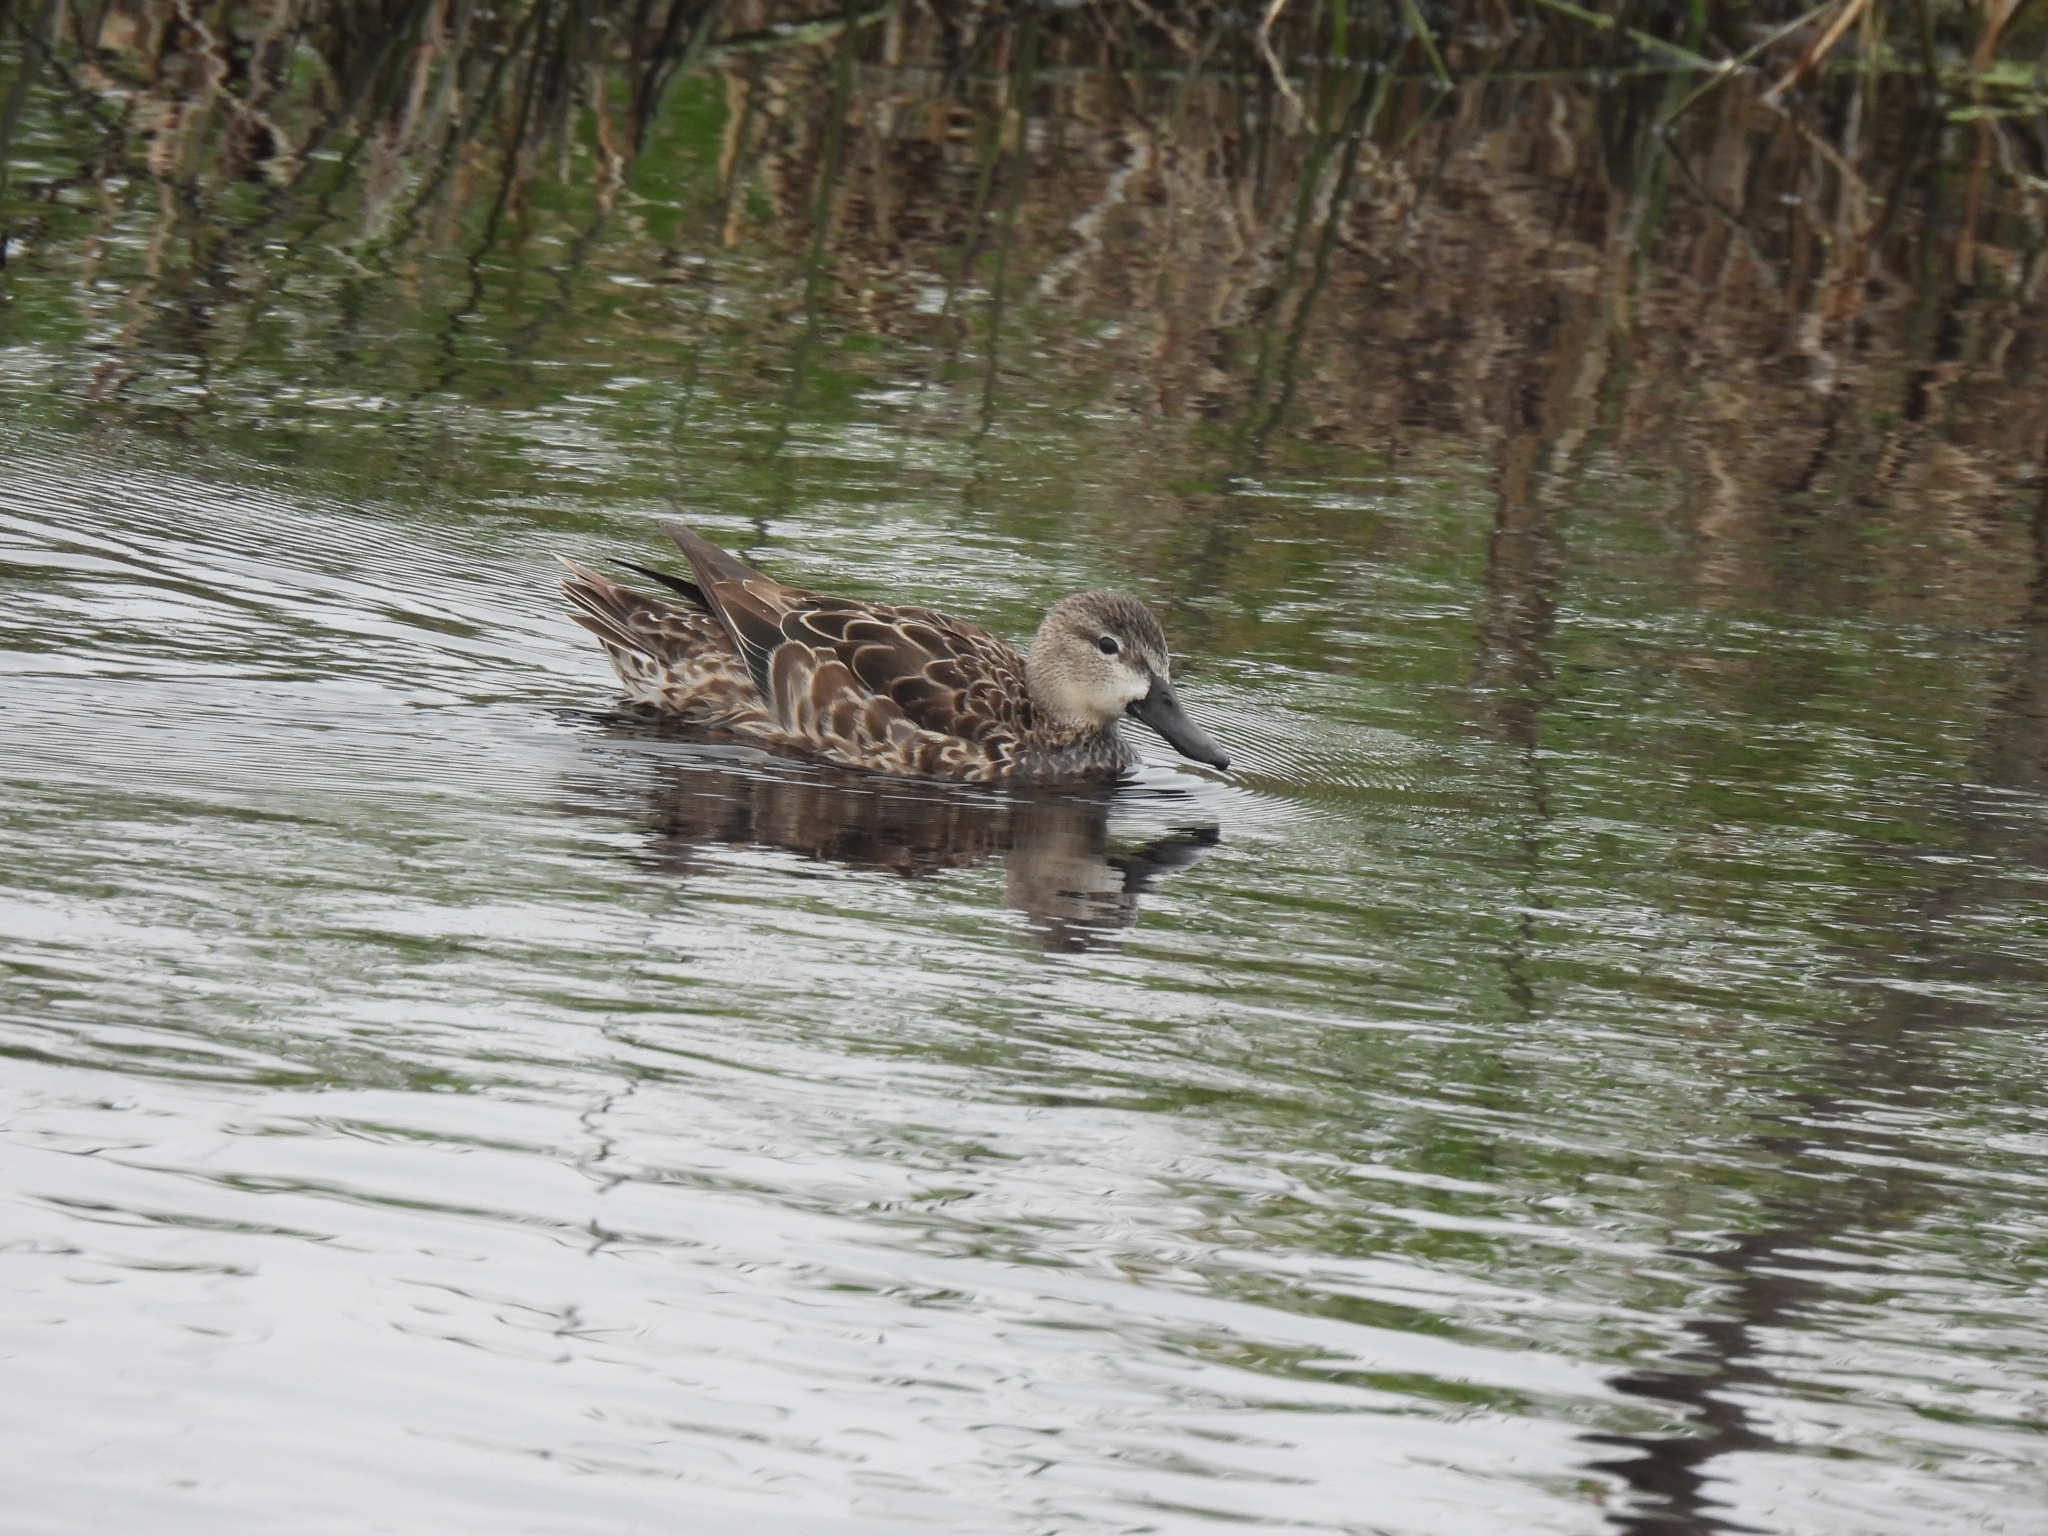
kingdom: Animalia
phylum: Chordata
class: Aves
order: Anseriformes
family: Anatidae
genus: Spatula
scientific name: Spatula discors
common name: Blue-winged teal
